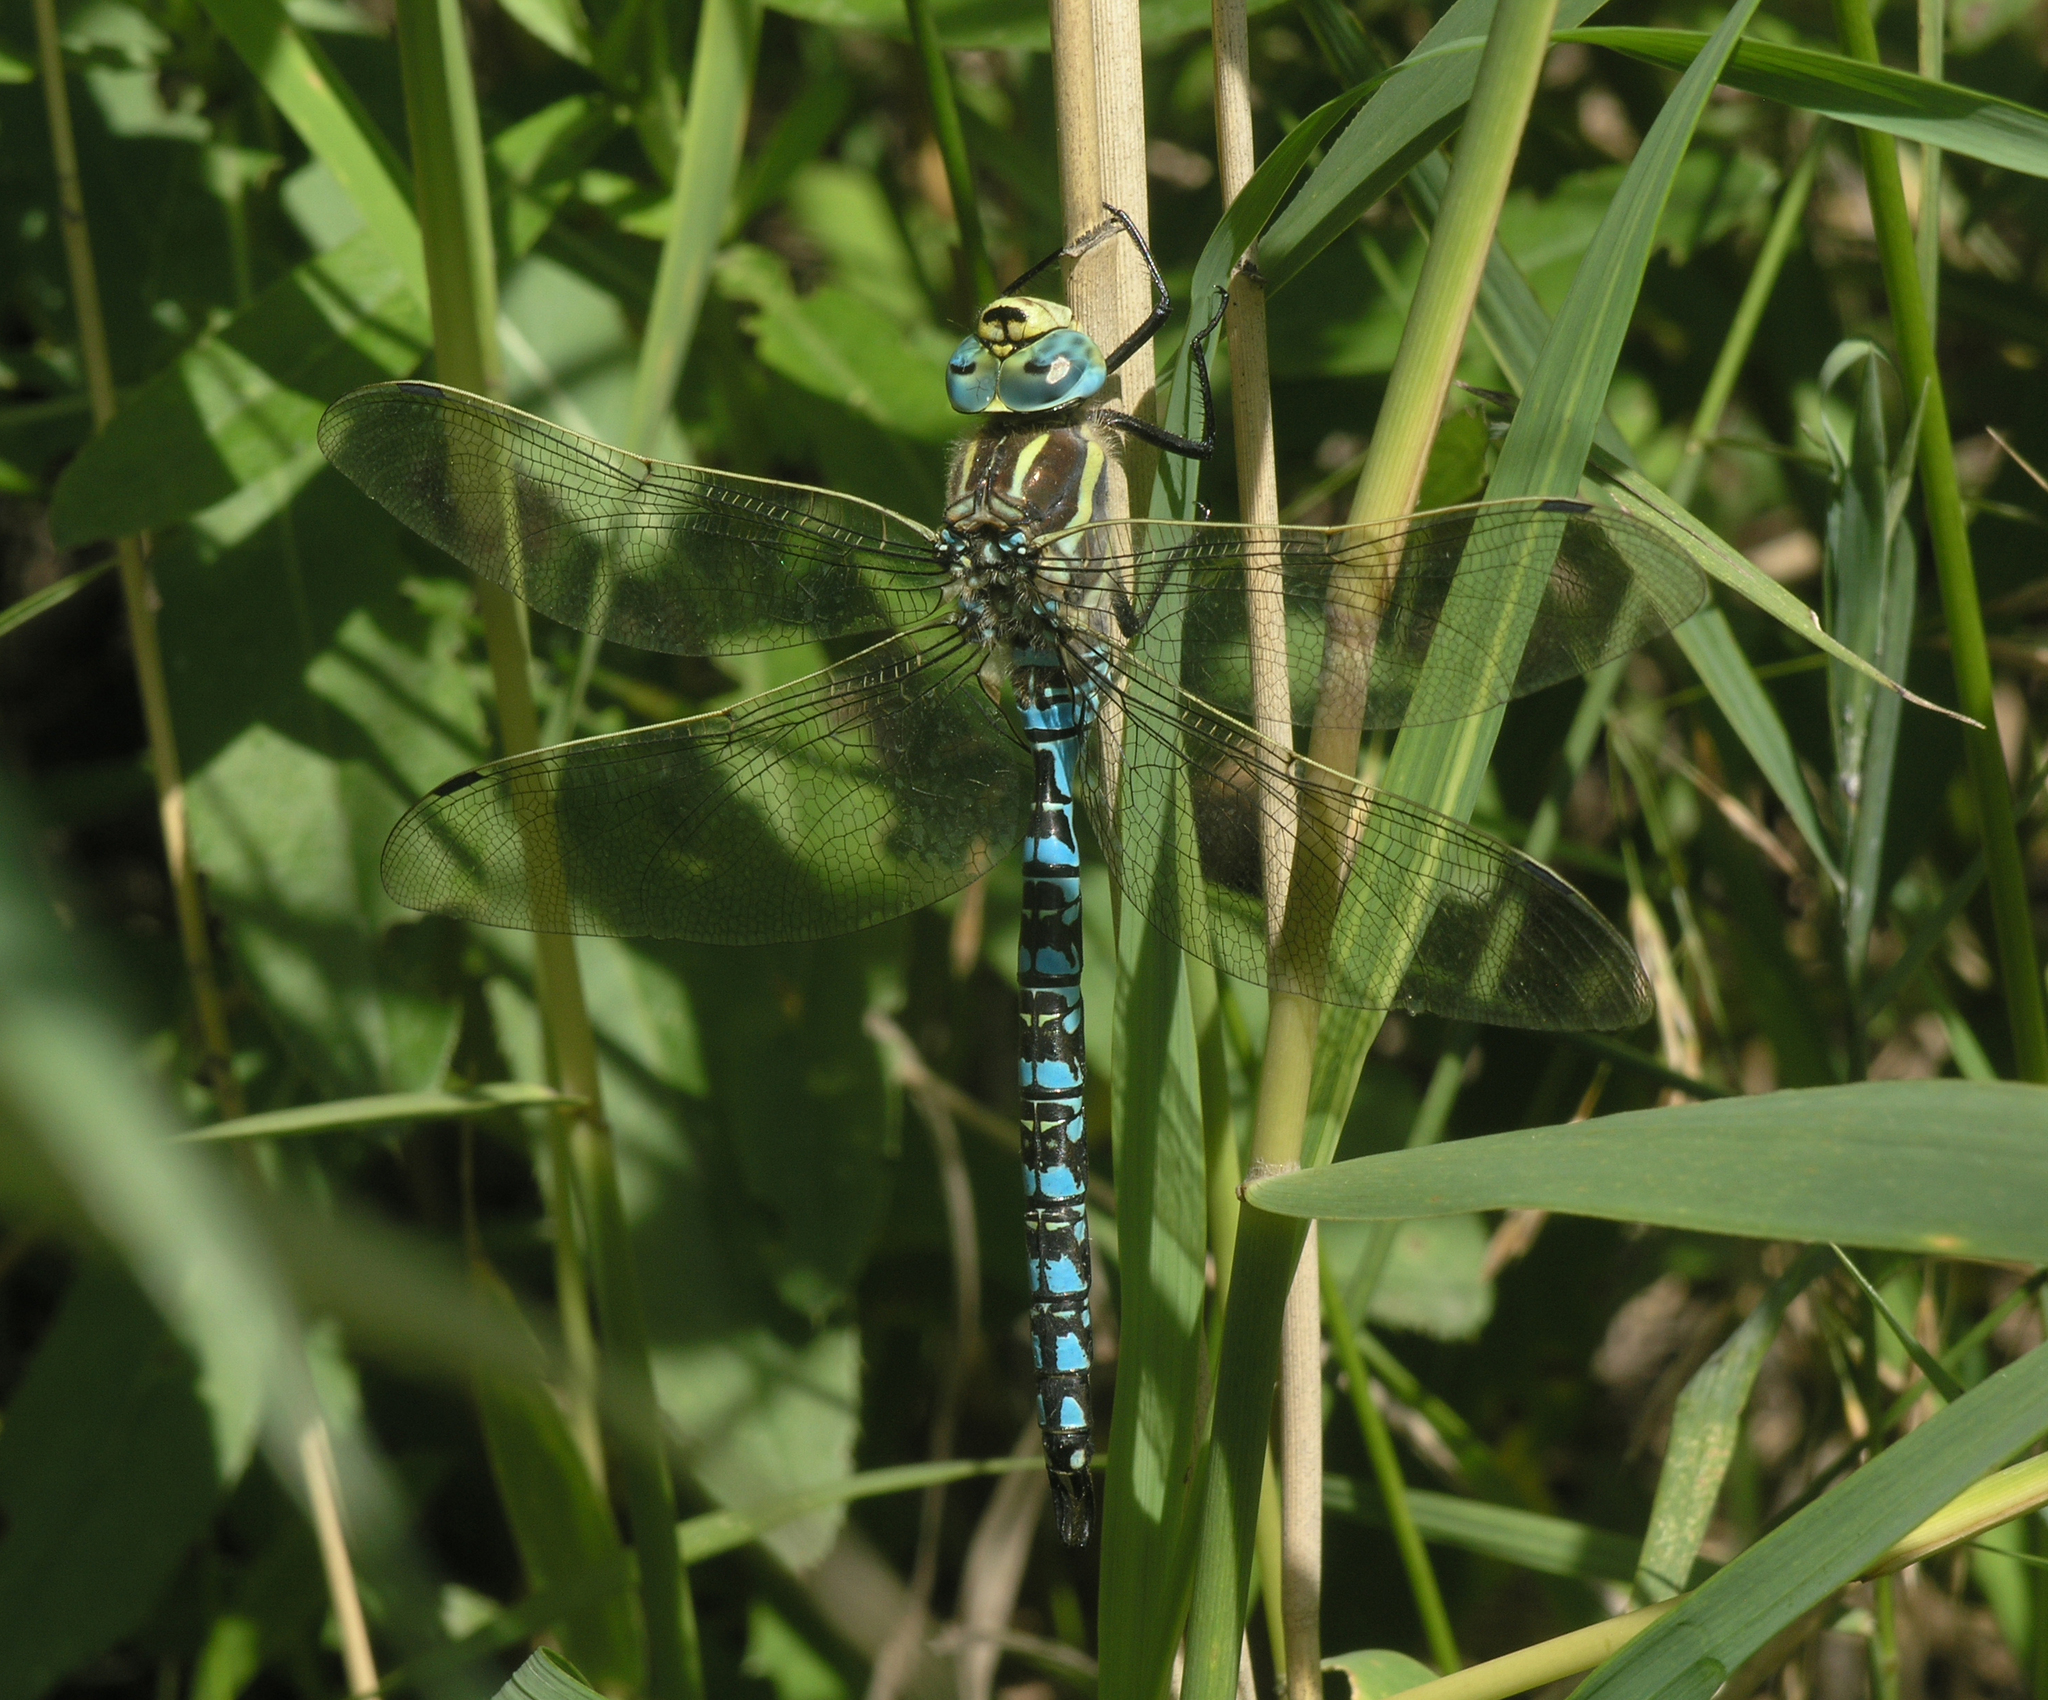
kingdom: Animalia
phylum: Arthropoda
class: Insecta
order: Odonata
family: Aeshnidae
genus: Aeshna
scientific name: Aeshna serrata
